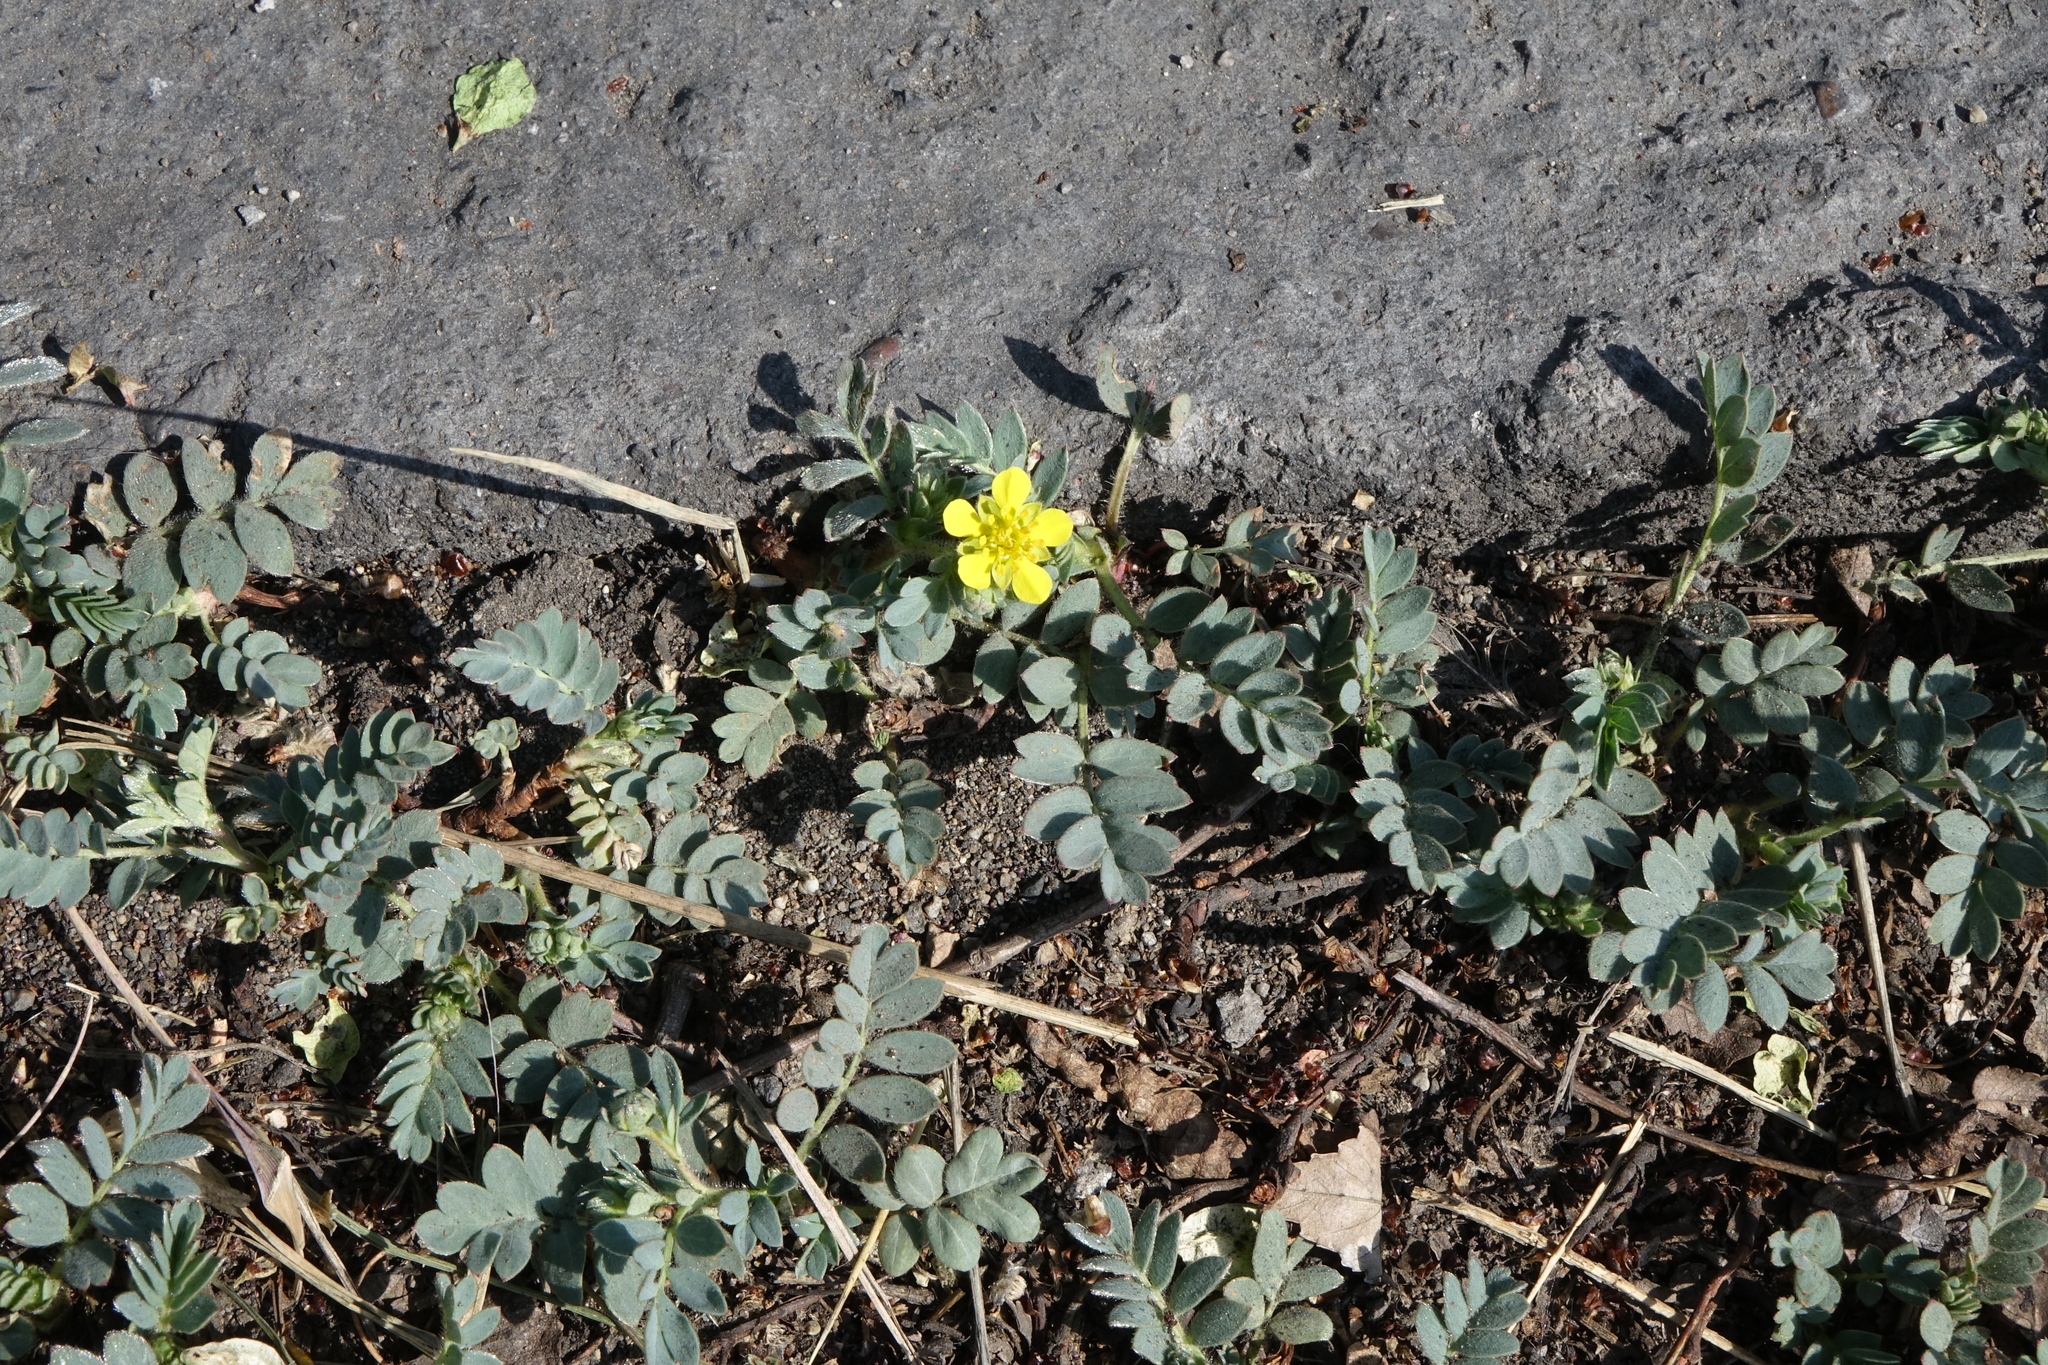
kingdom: Plantae
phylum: Tracheophyta
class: Magnoliopsida
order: Rosales
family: Rosaceae
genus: Sibbaldianthe
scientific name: Sibbaldianthe bifurca
